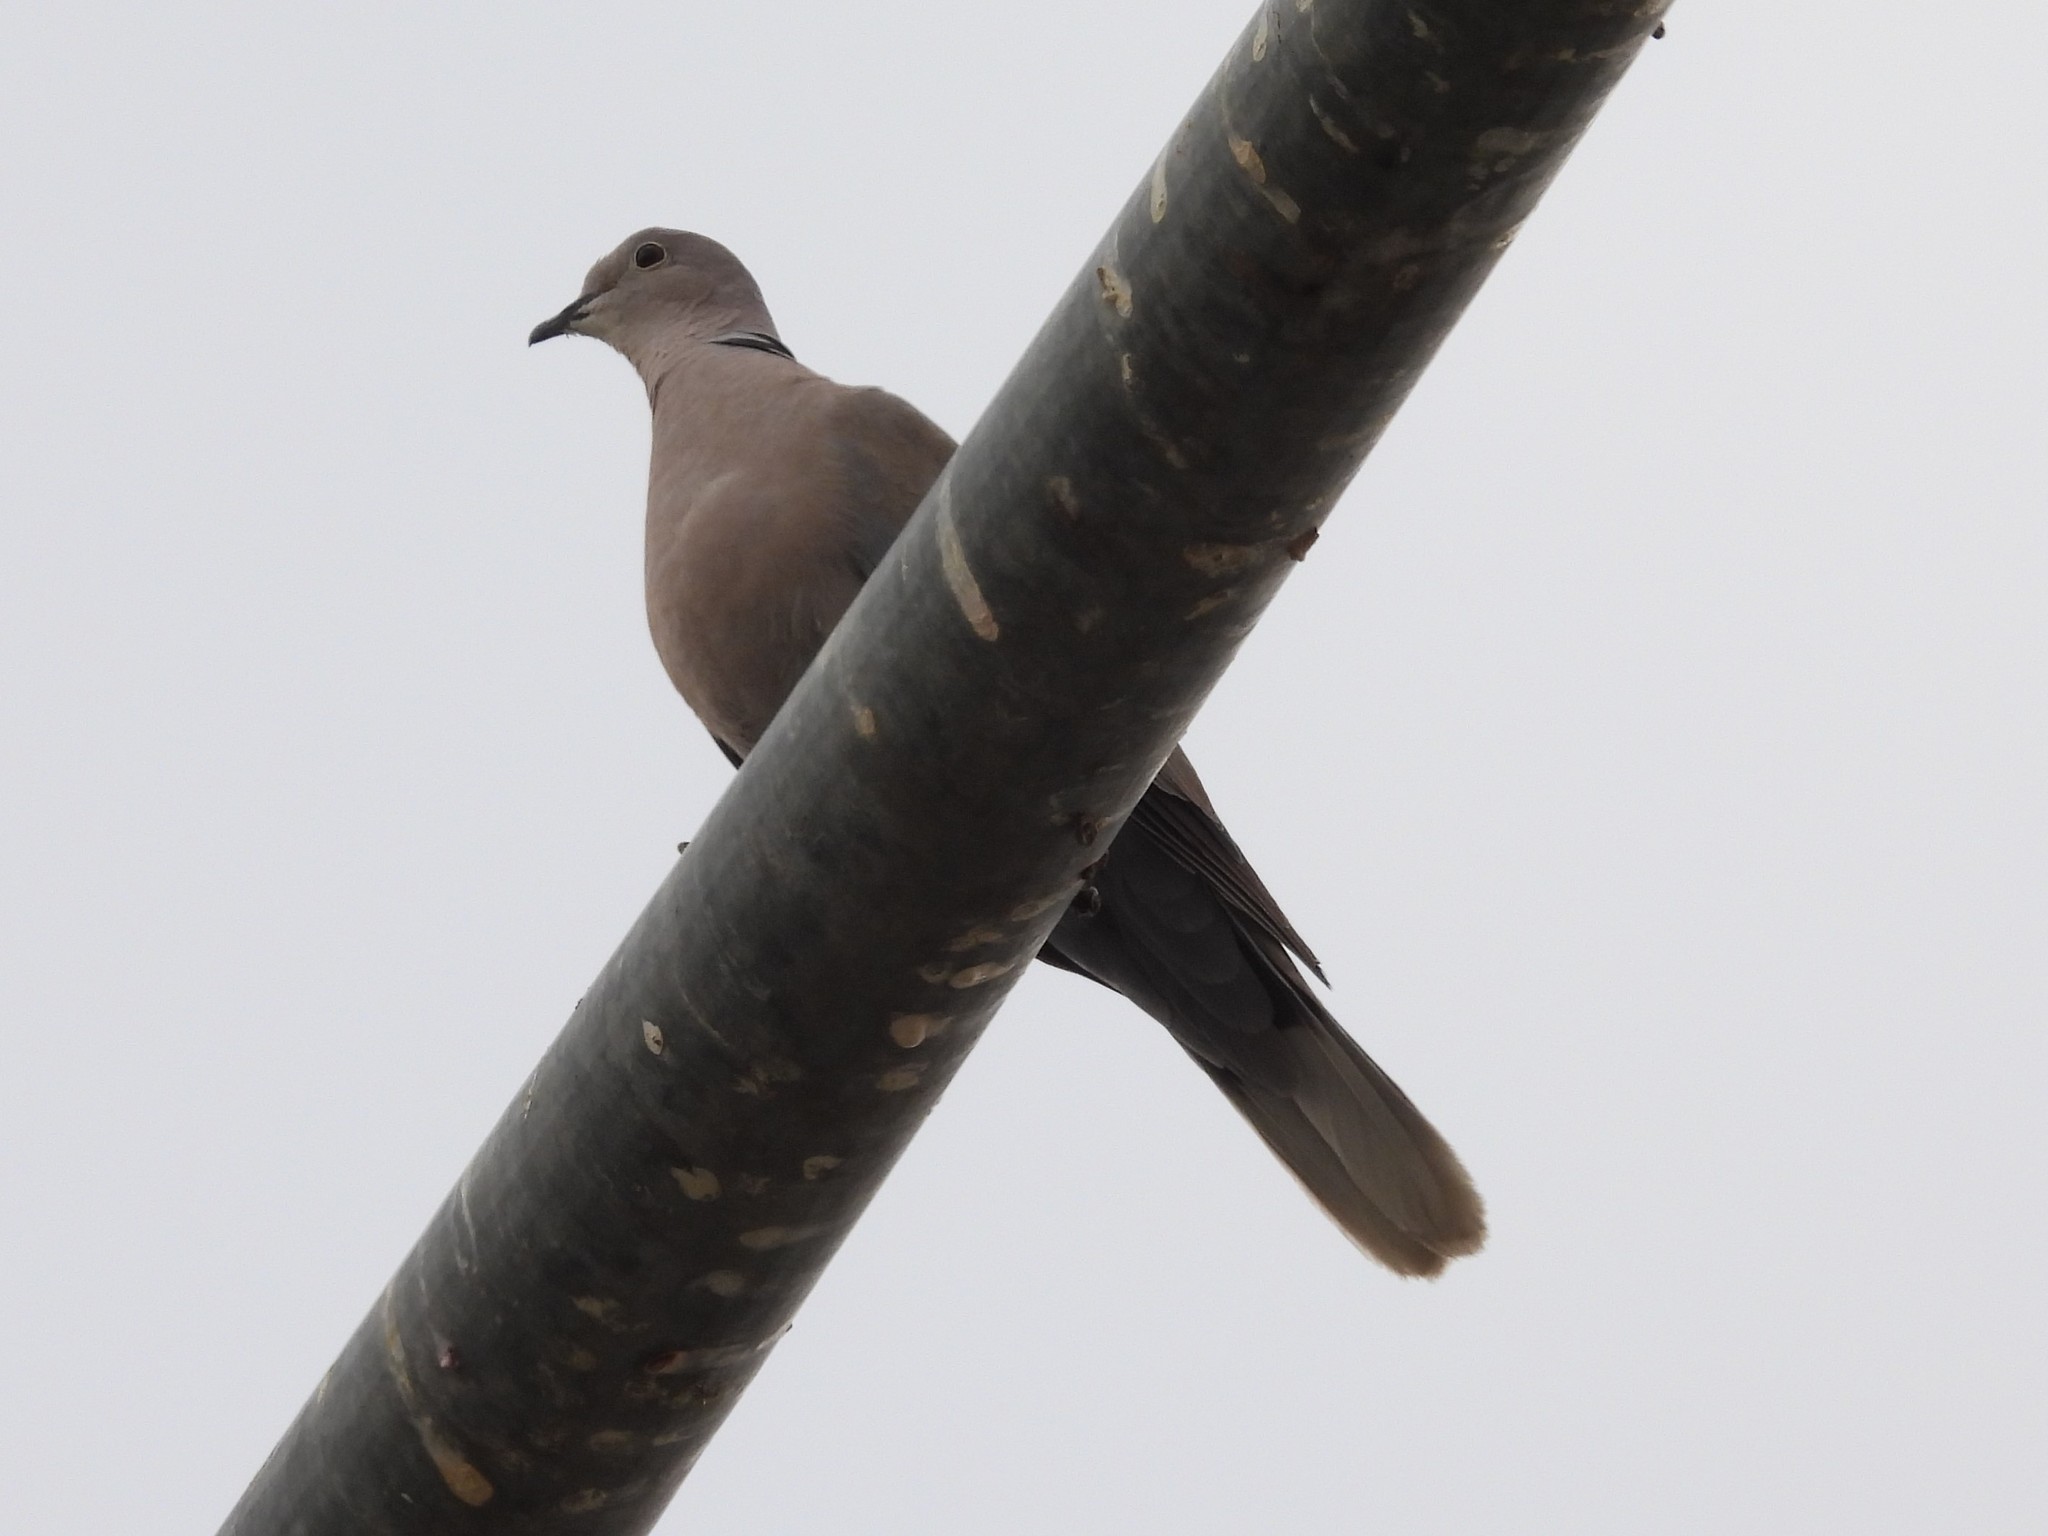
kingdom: Animalia
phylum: Chordata
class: Aves
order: Columbiformes
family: Columbidae
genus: Streptopelia
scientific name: Streptopelia decaocto
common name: Eurasian collared dove
